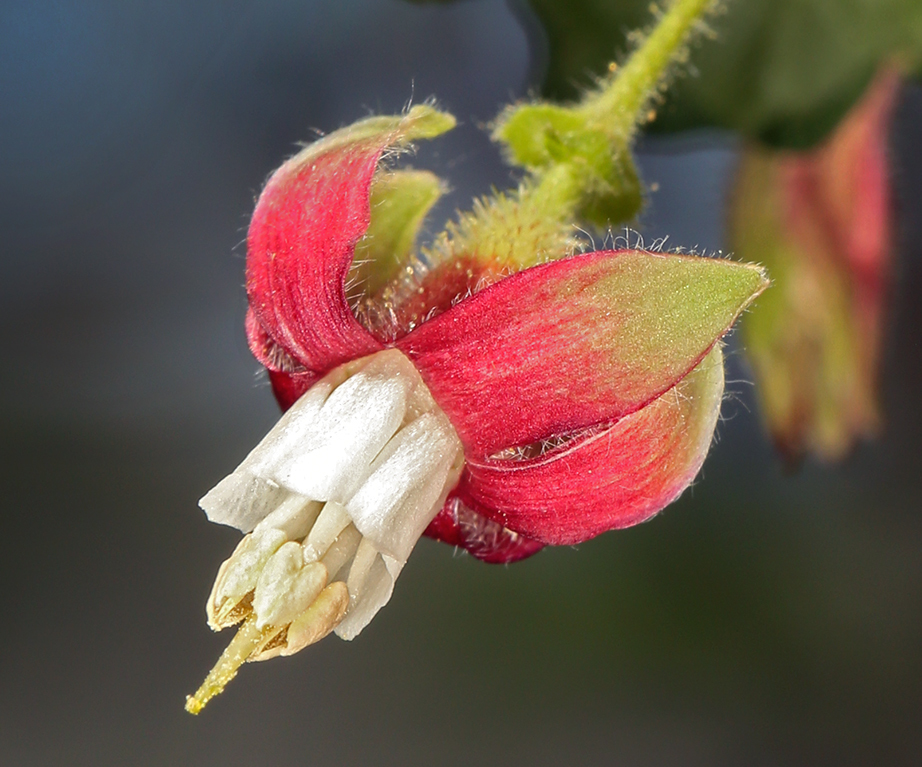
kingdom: Plantae
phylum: Tracheophyta
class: Magnoliopsida
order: Saxifragales
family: Grossulariaceae
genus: Ribes
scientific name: Ribes thacherianum
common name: Santa cruz island gooseberry
